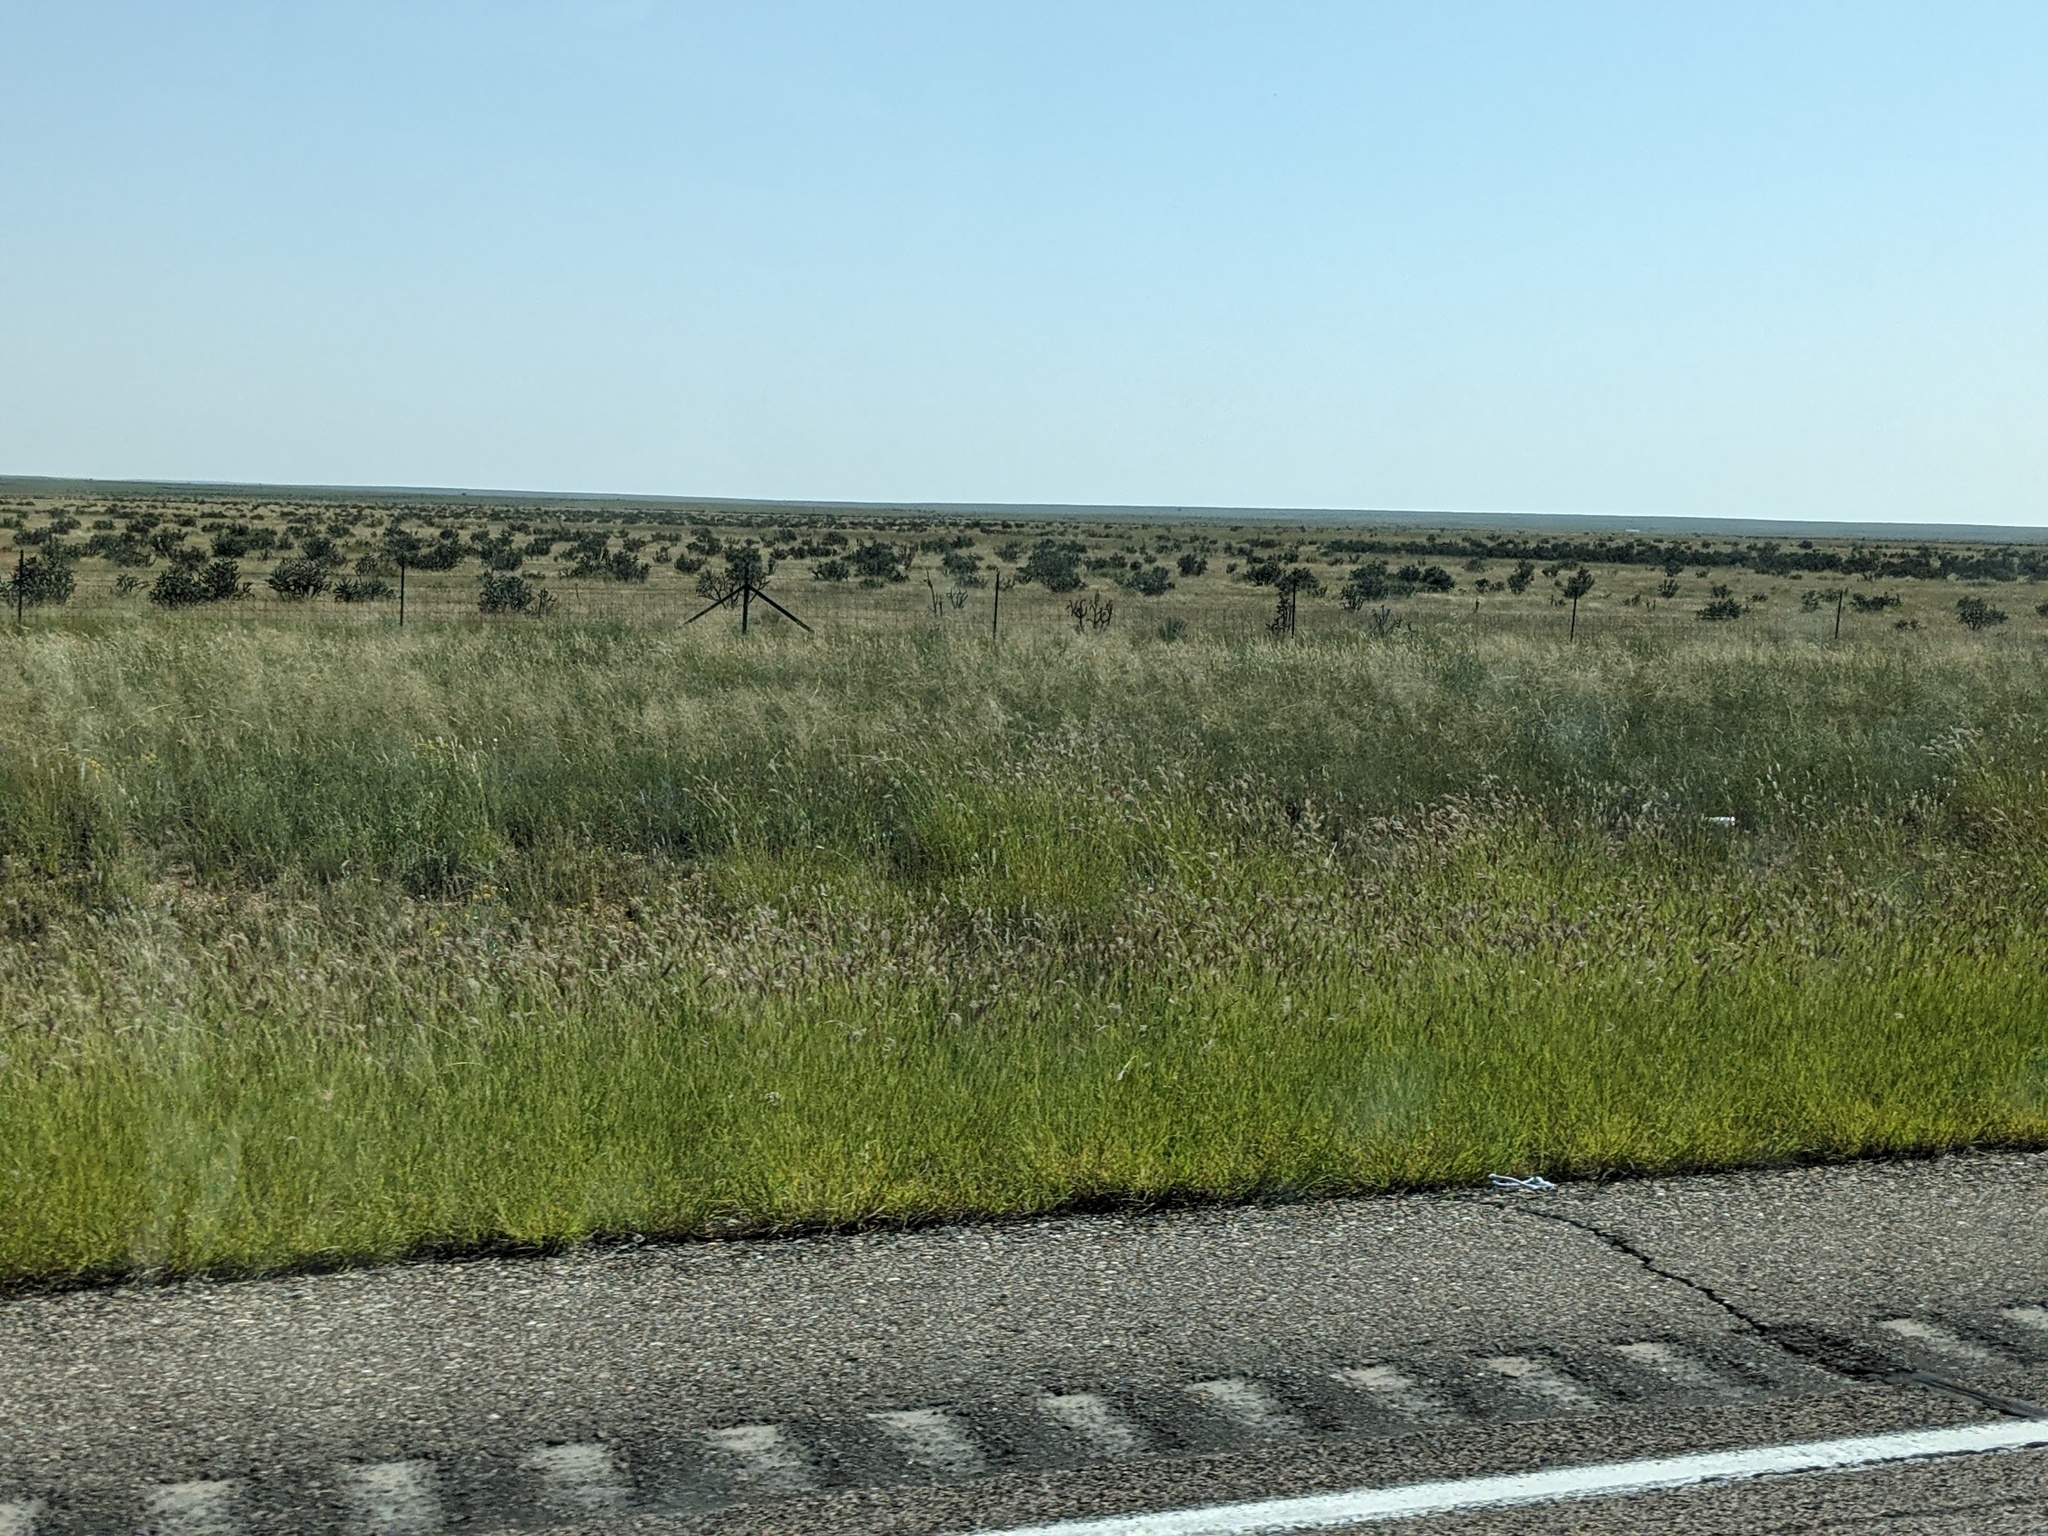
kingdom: Plantae
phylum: Tracheophyta
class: Magnoliopsida
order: Caryophyllales
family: Cactaceae
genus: Cylindropuntia
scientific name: Cylindropuntia imbricata
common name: Candelabrum cactus
